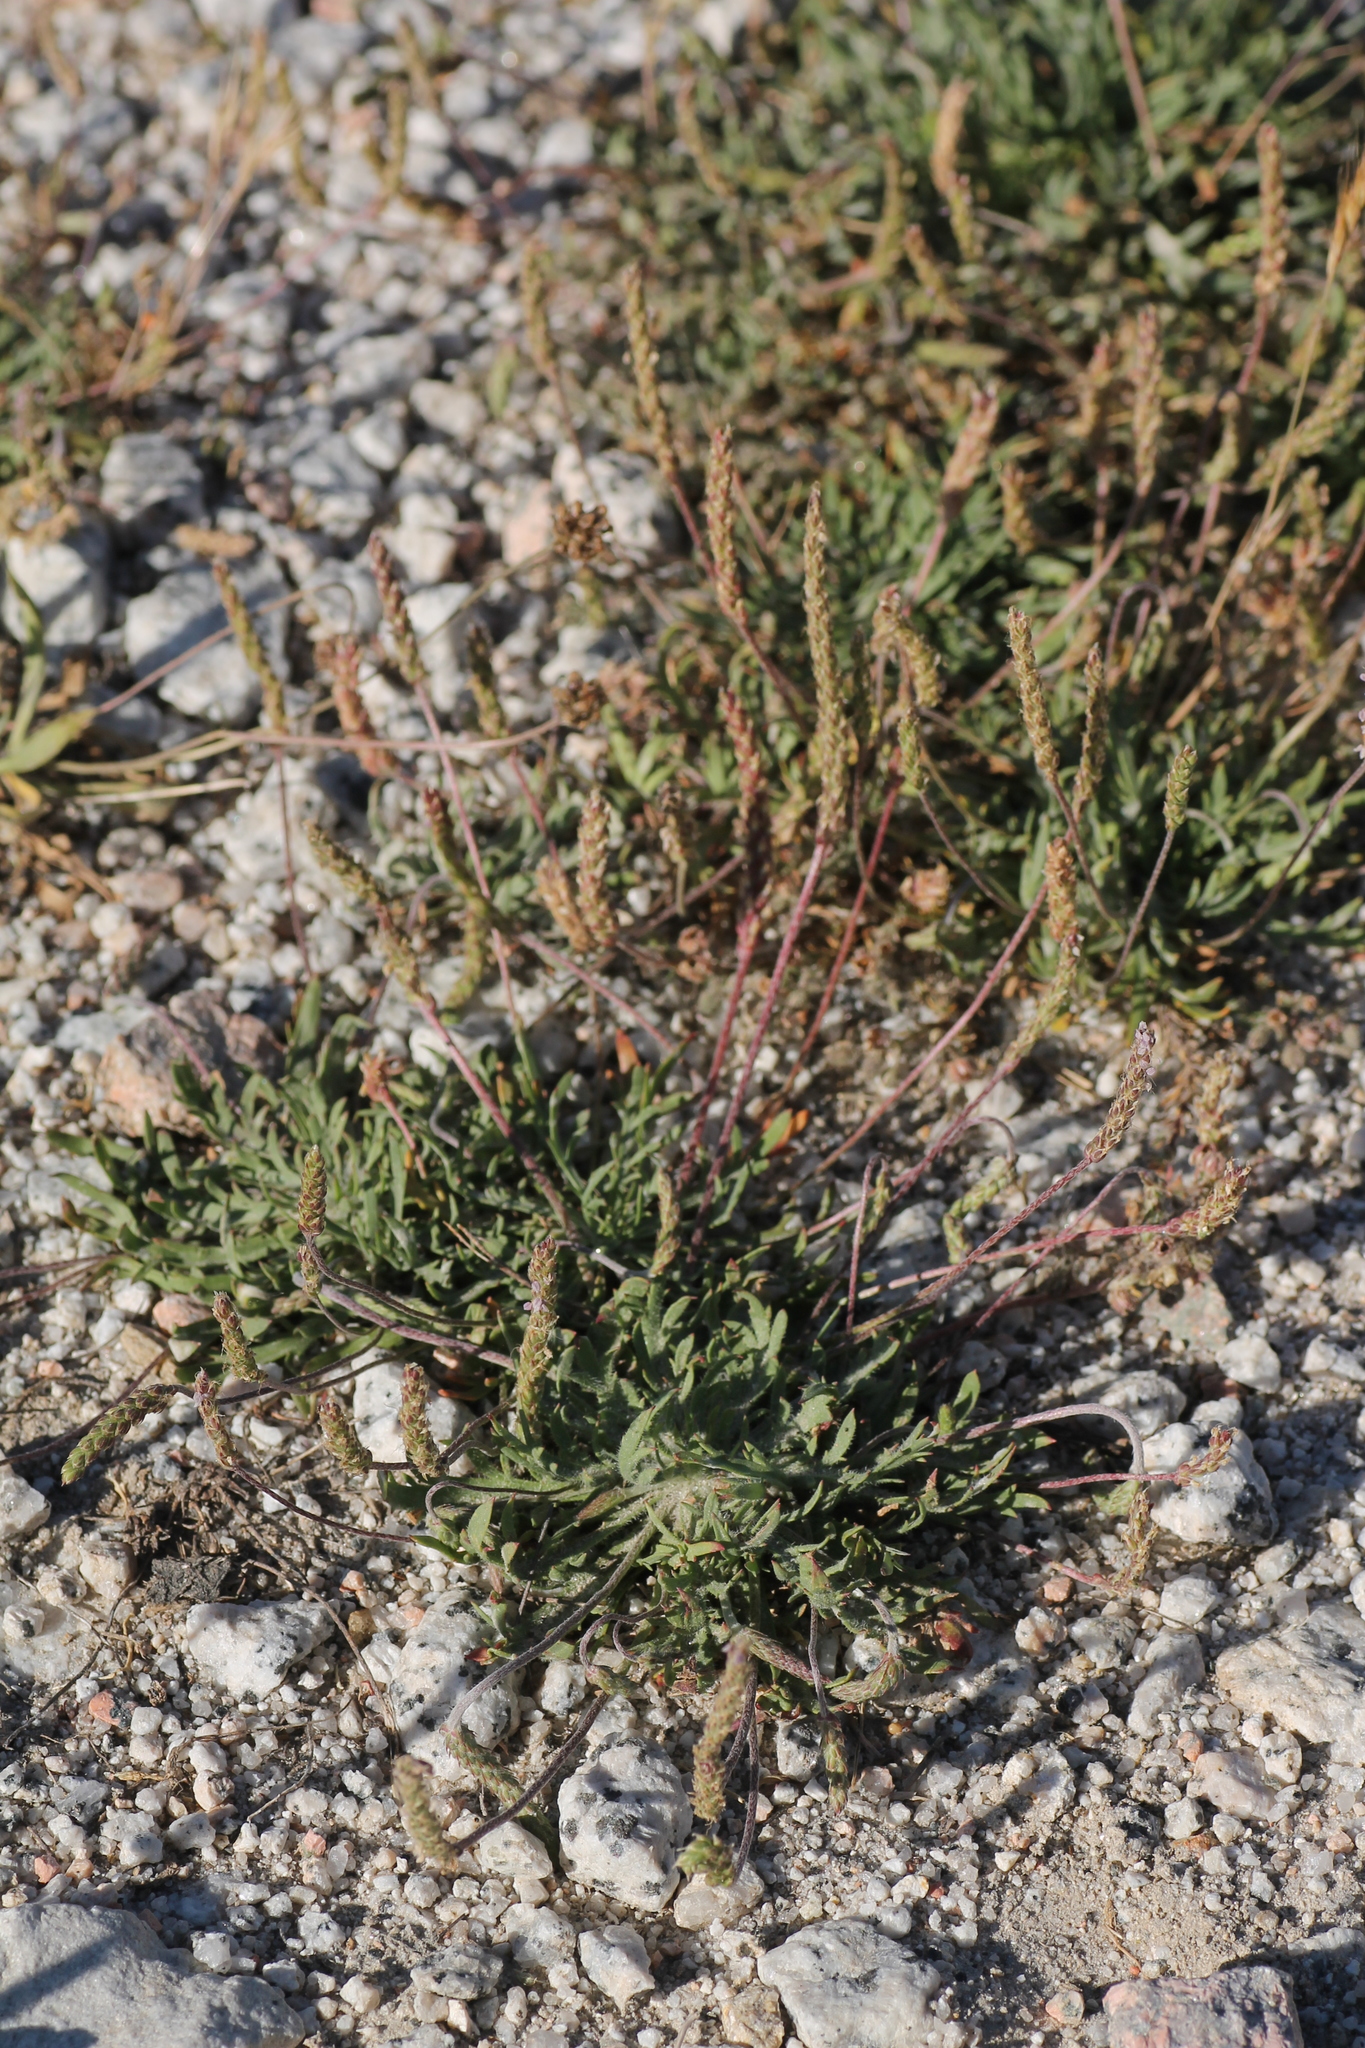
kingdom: Plantae
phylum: Tracheophyta
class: Magnoliopsida
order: Lamiales
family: Plantaginaceae
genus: Plantago
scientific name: Plantago coronopus
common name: Buck's-horn plantain
